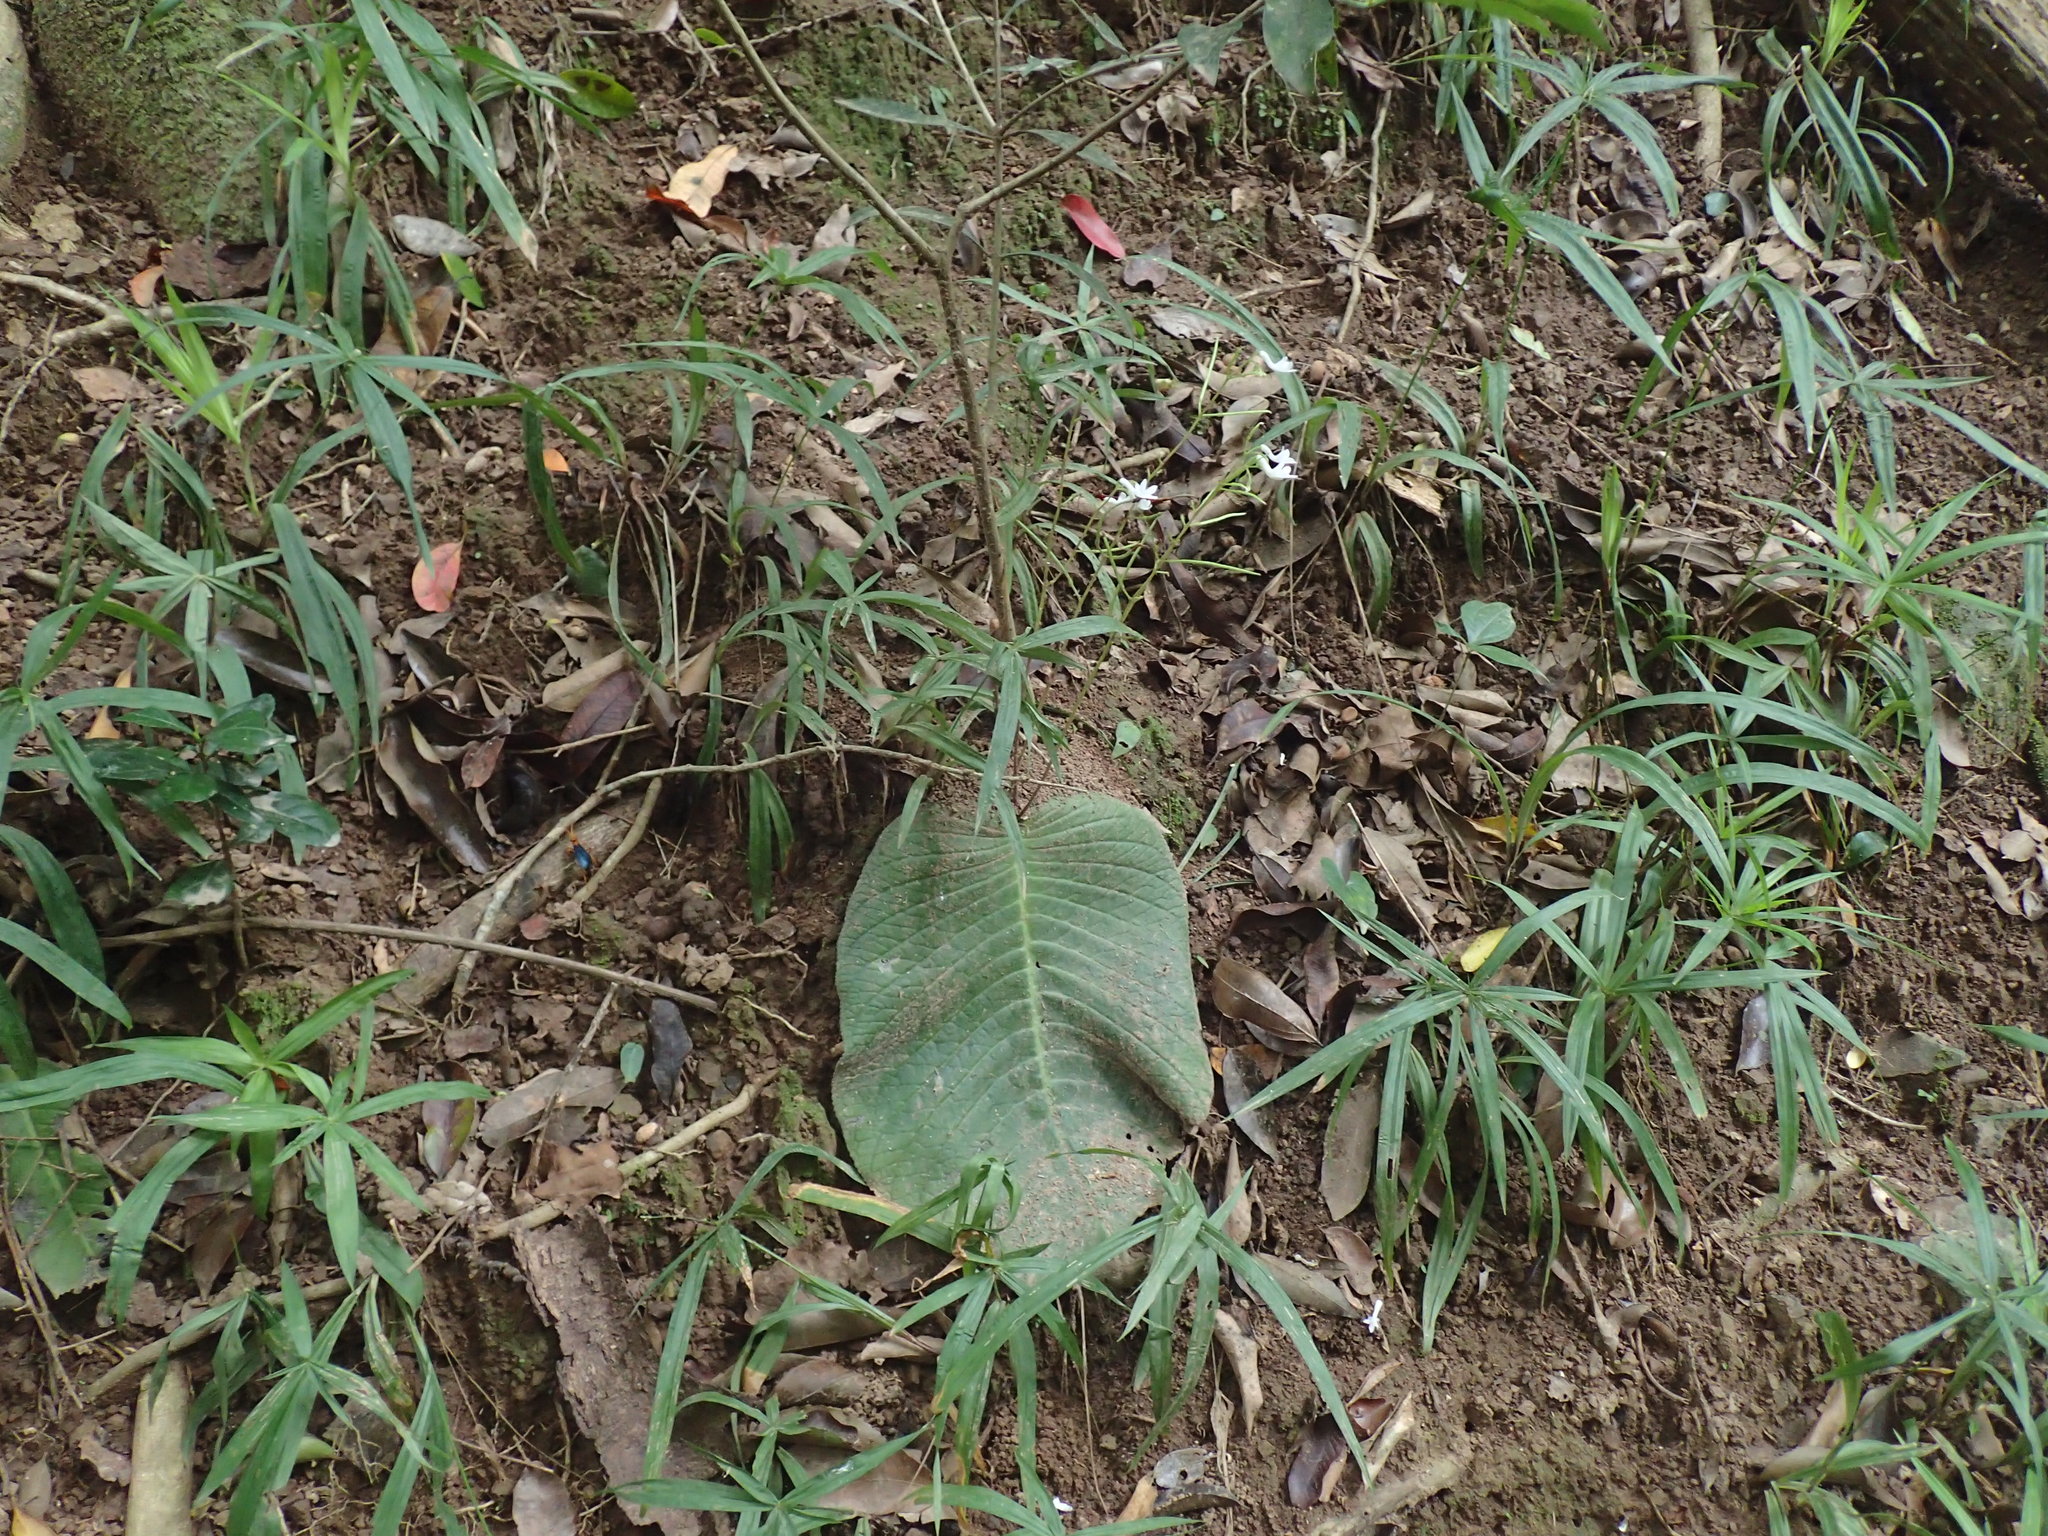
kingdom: Plantae
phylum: Tracheophyta
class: Magnoliopsida
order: Lamiales
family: Gesneriaceae
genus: Streptocarpus
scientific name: Streptocarpus haygarthii
